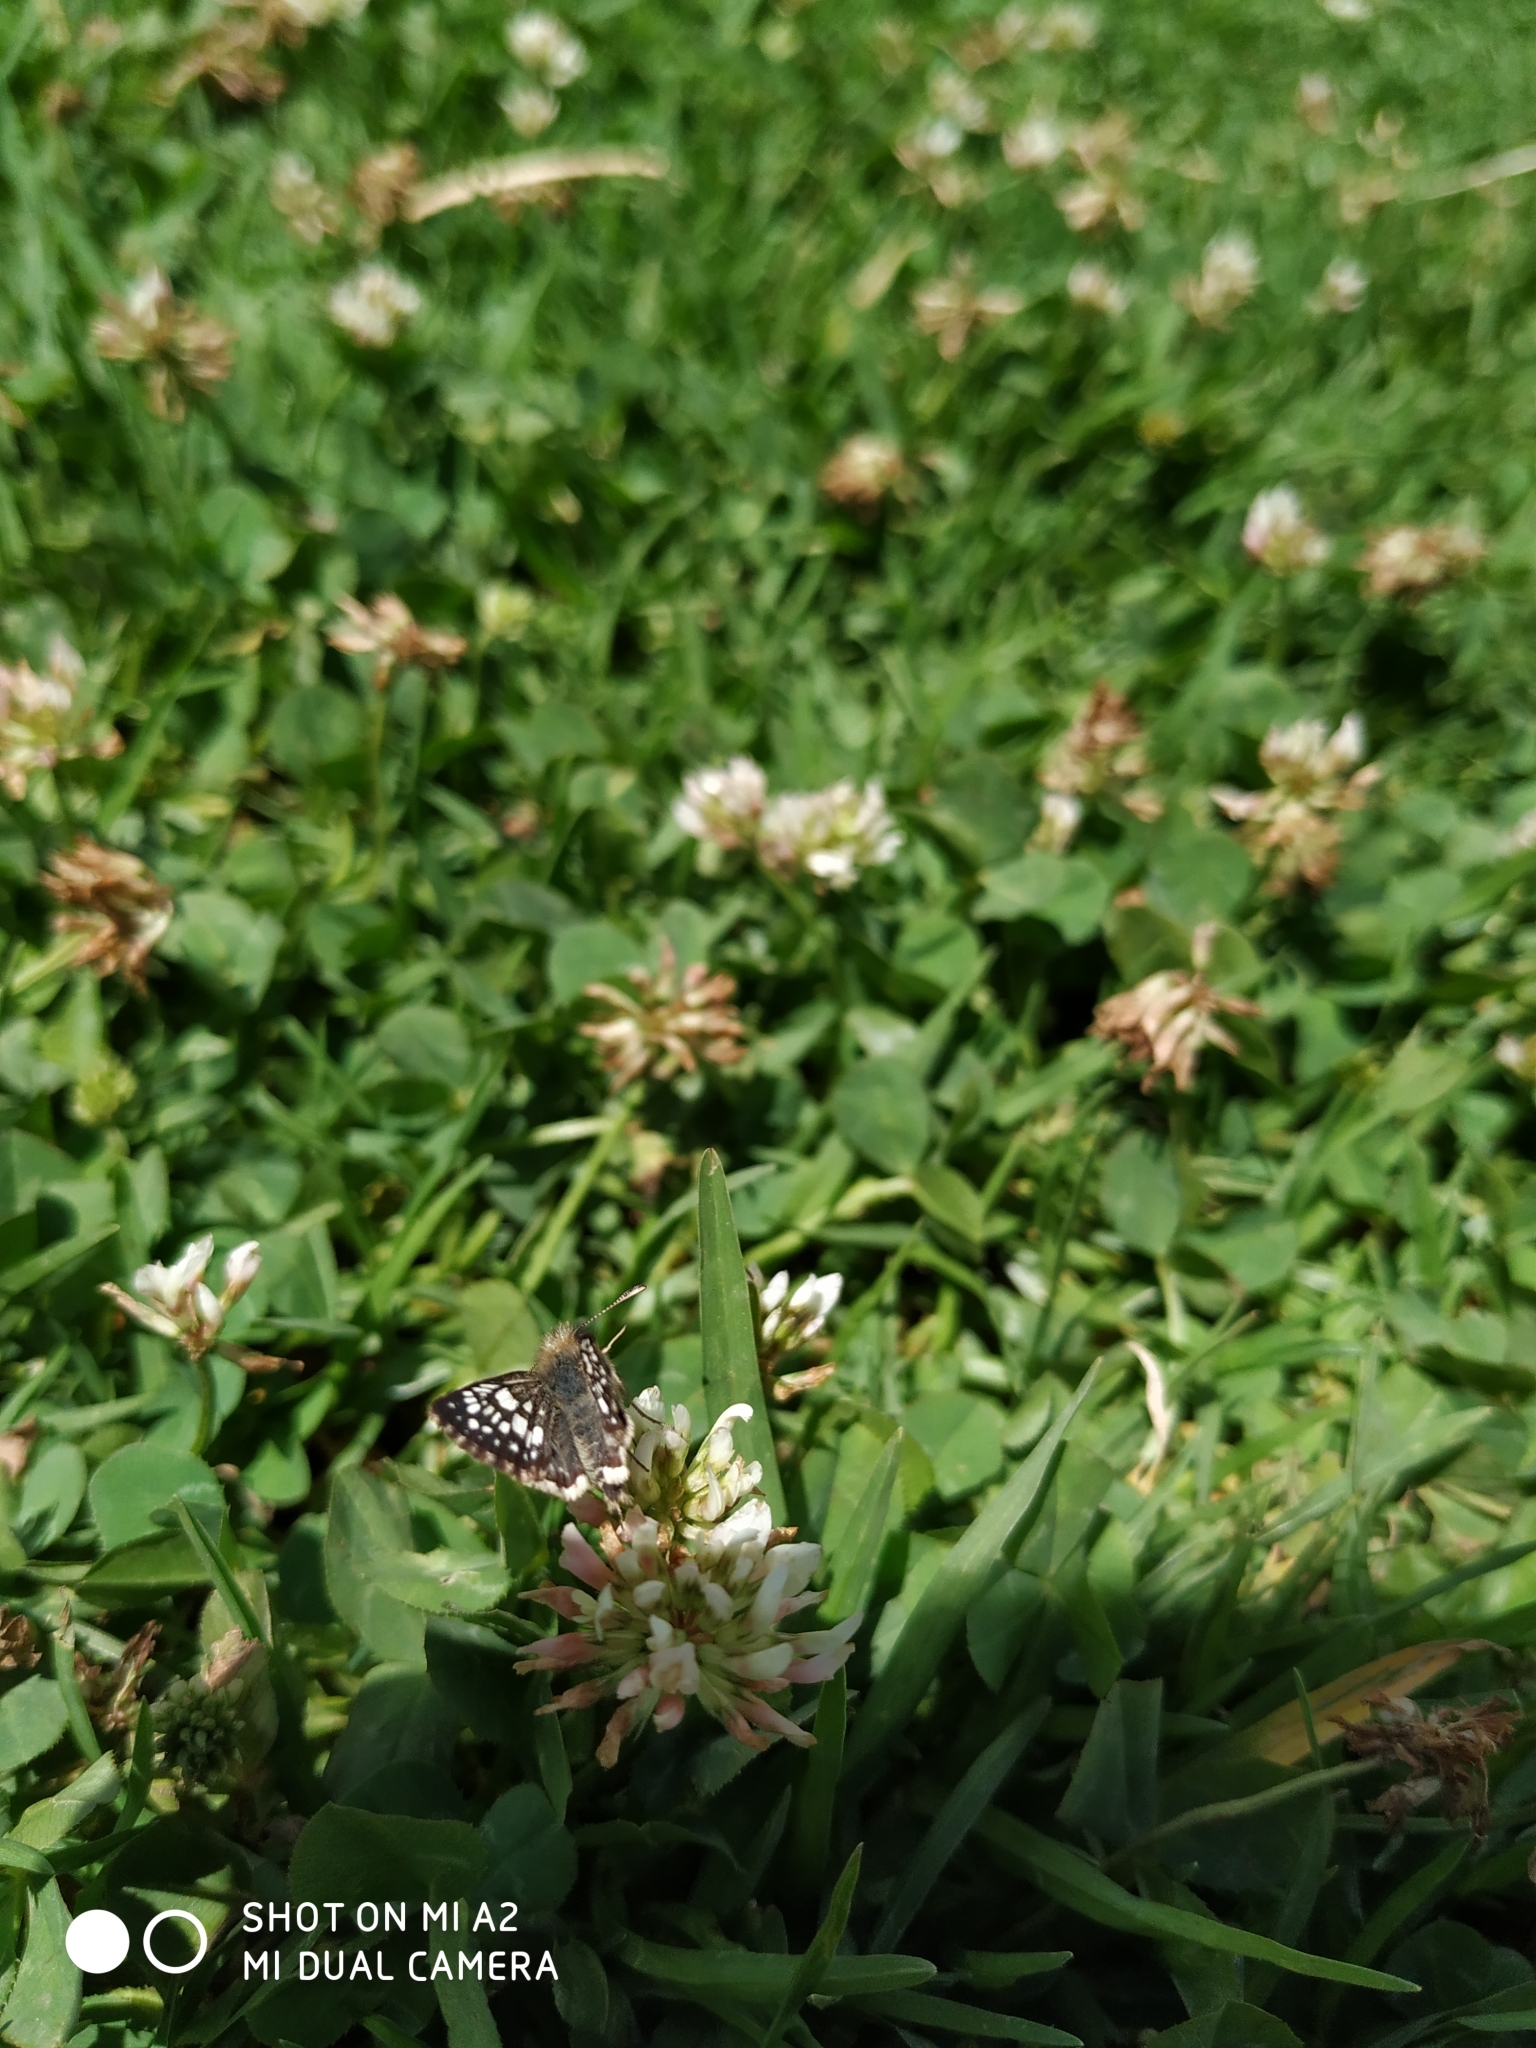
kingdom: Animalia
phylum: Arthropoda
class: Insecta
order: Lepidoptera
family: Hesperiidae
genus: Burnsius
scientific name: Burnsius adepta
